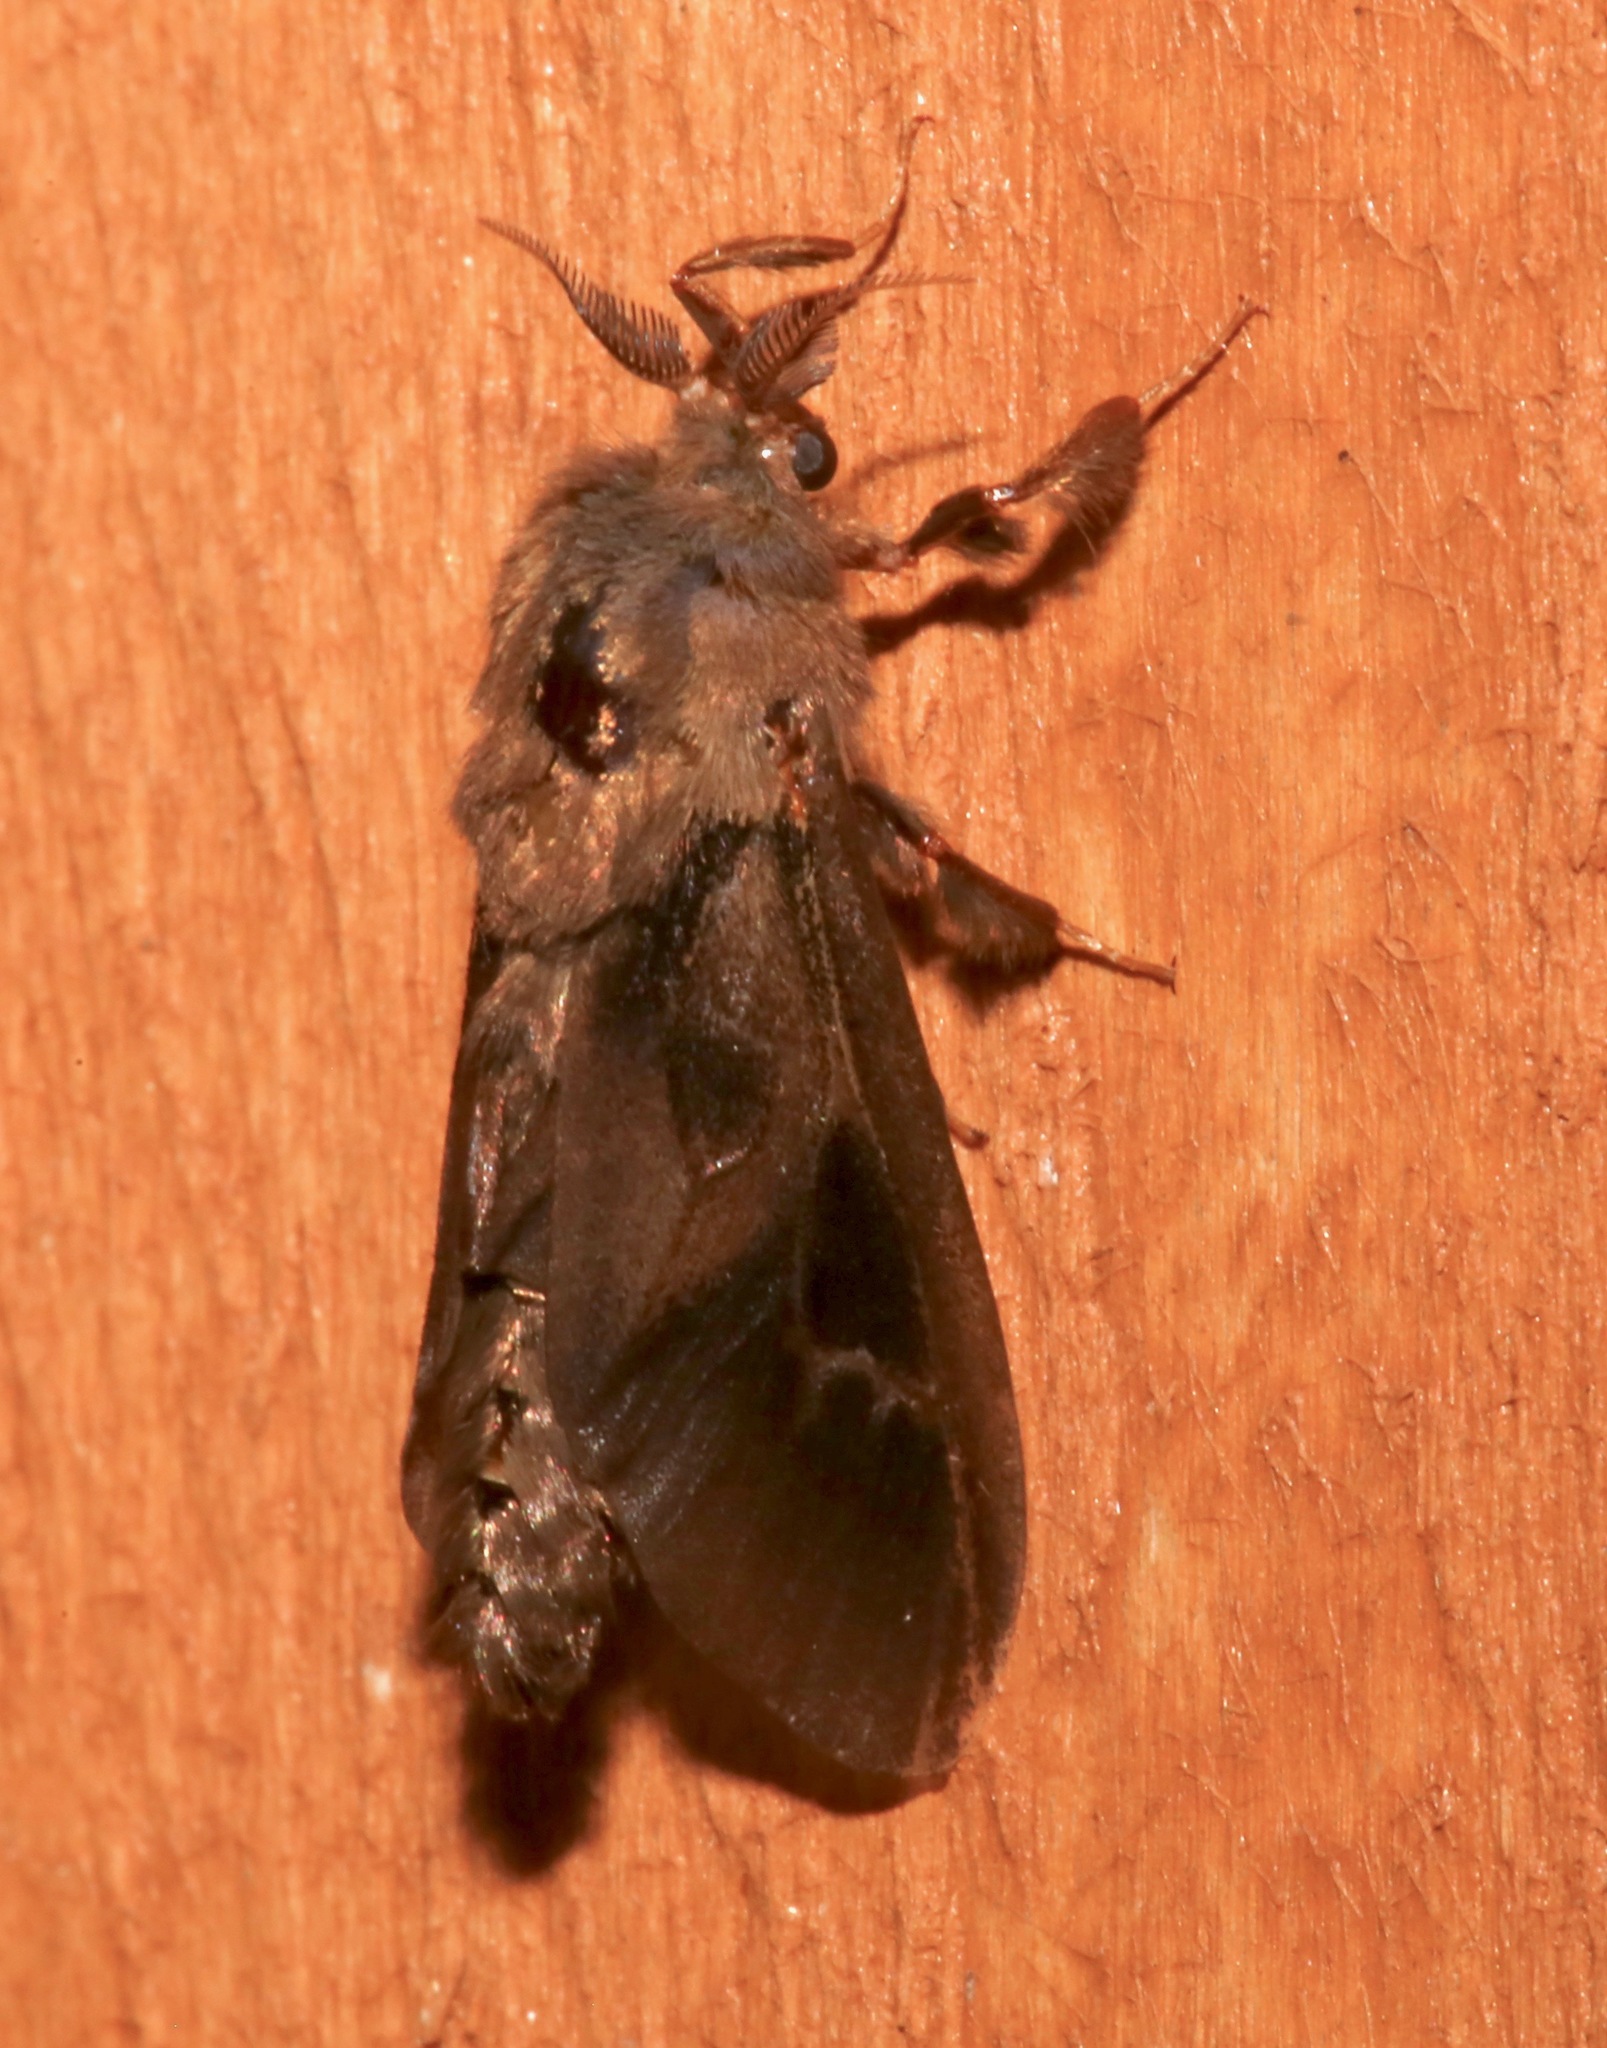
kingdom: Animalia
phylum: Arthropoda
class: Insecta
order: Lepidoptera
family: Psychidae
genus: Oiketicus
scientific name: Oiketicus
